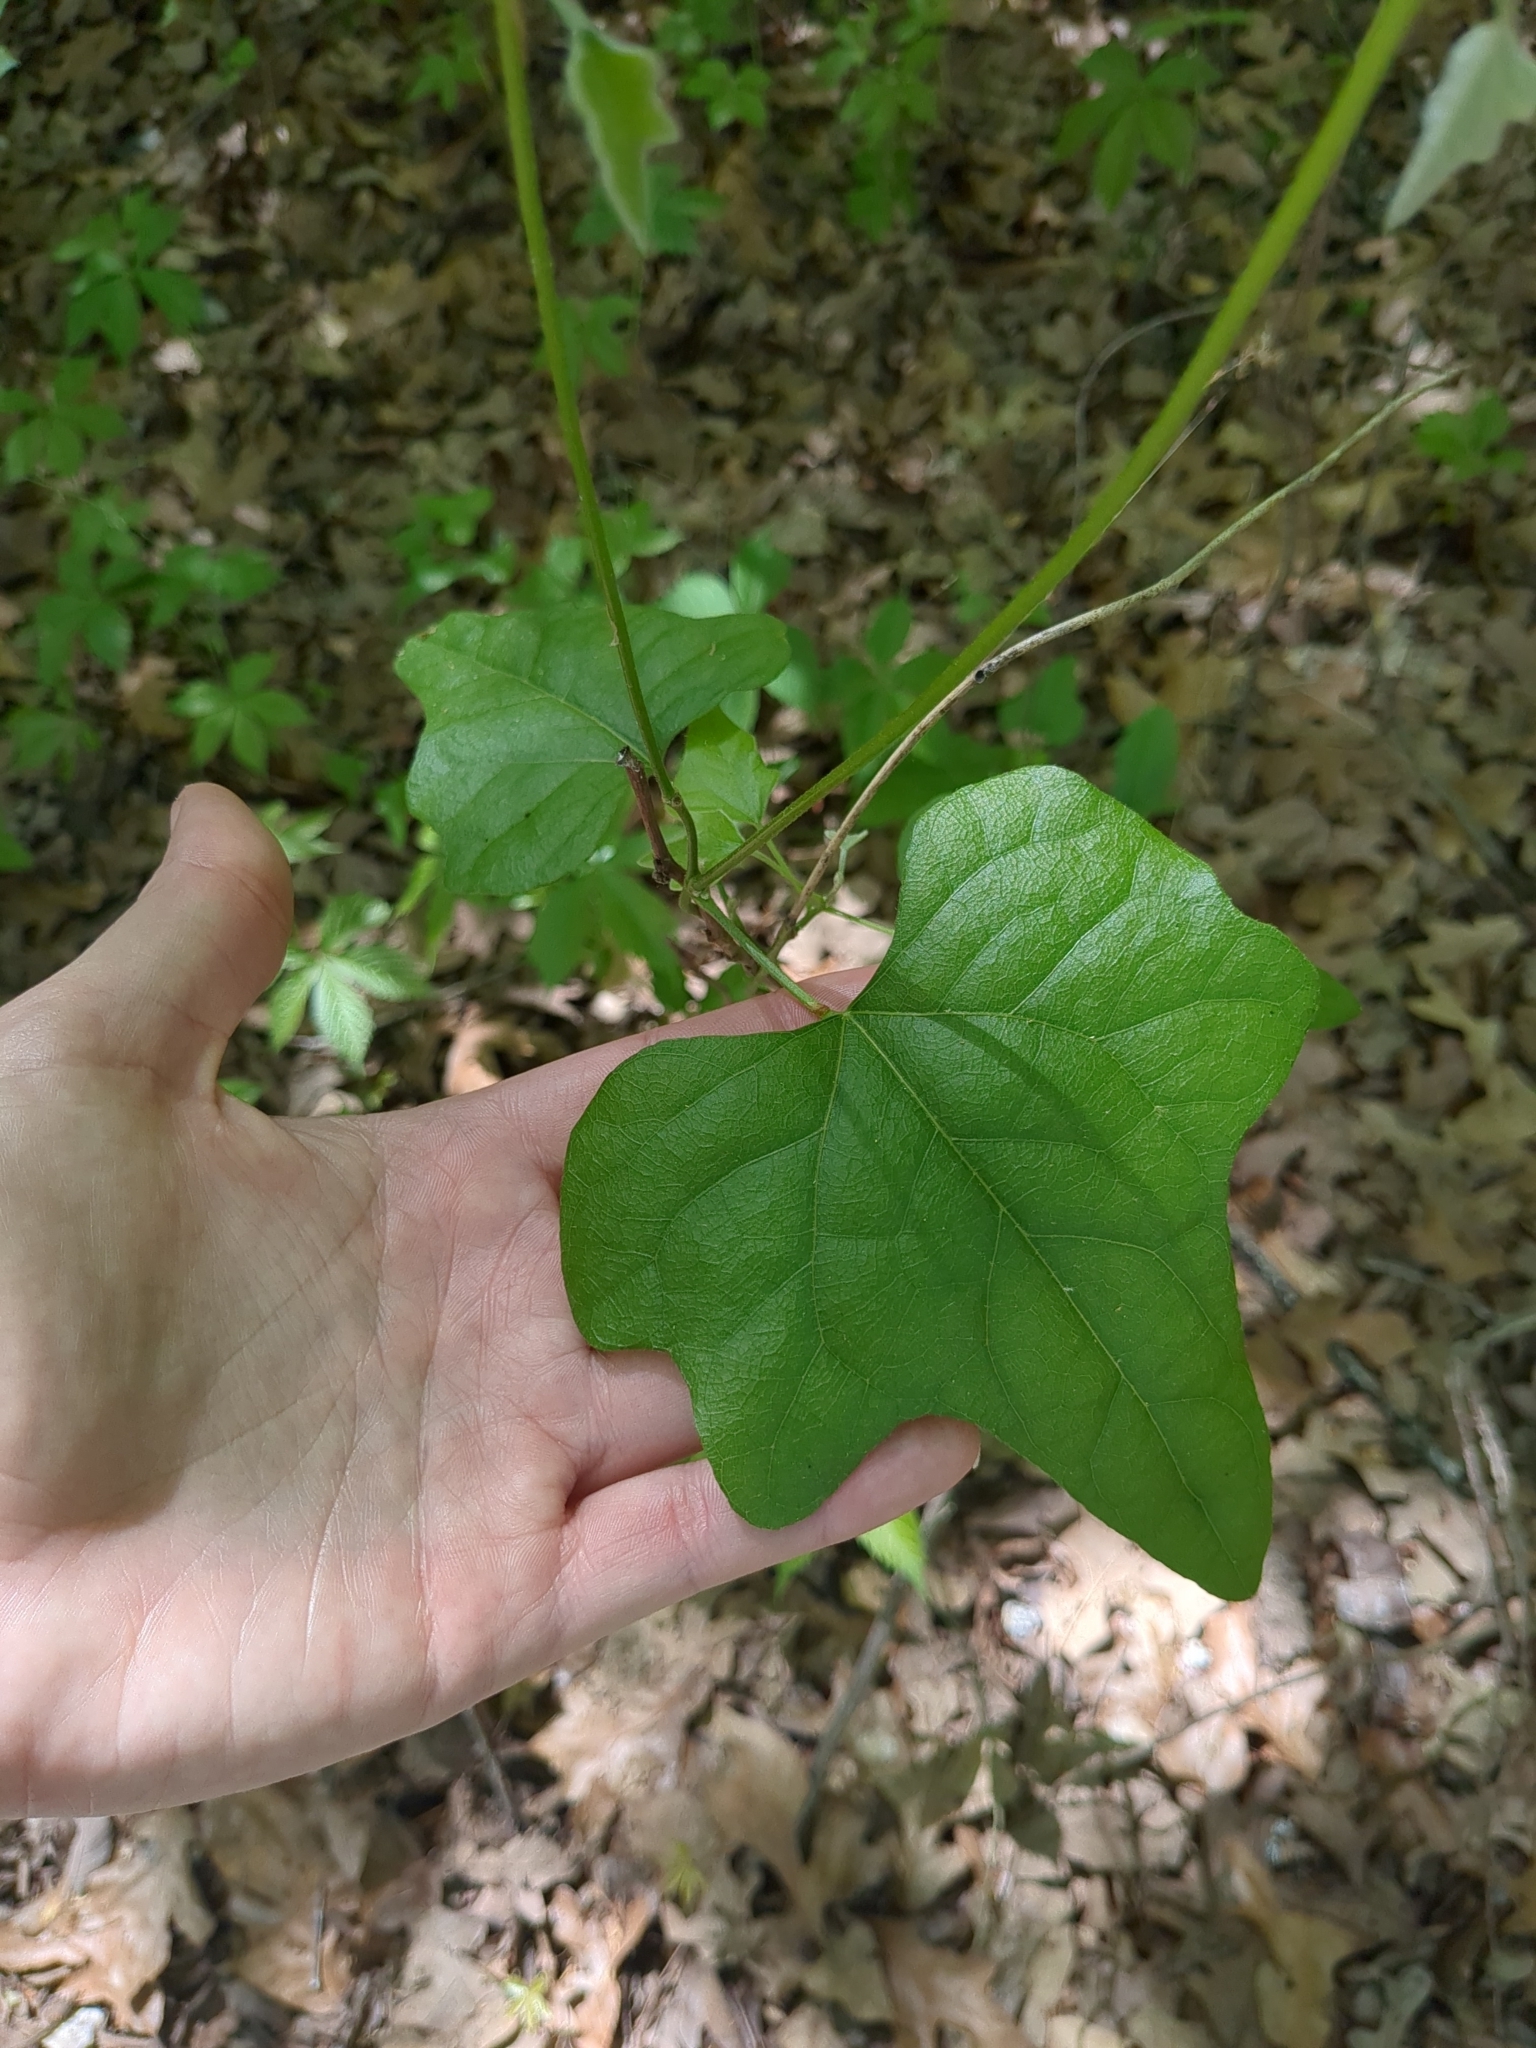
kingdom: Plantae
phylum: Tracheophyta
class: Magnoliopsida
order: Ranunculales
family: Menispermaceae
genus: Cocculus
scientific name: Cocculus carolinus
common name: Carolina moonseed
